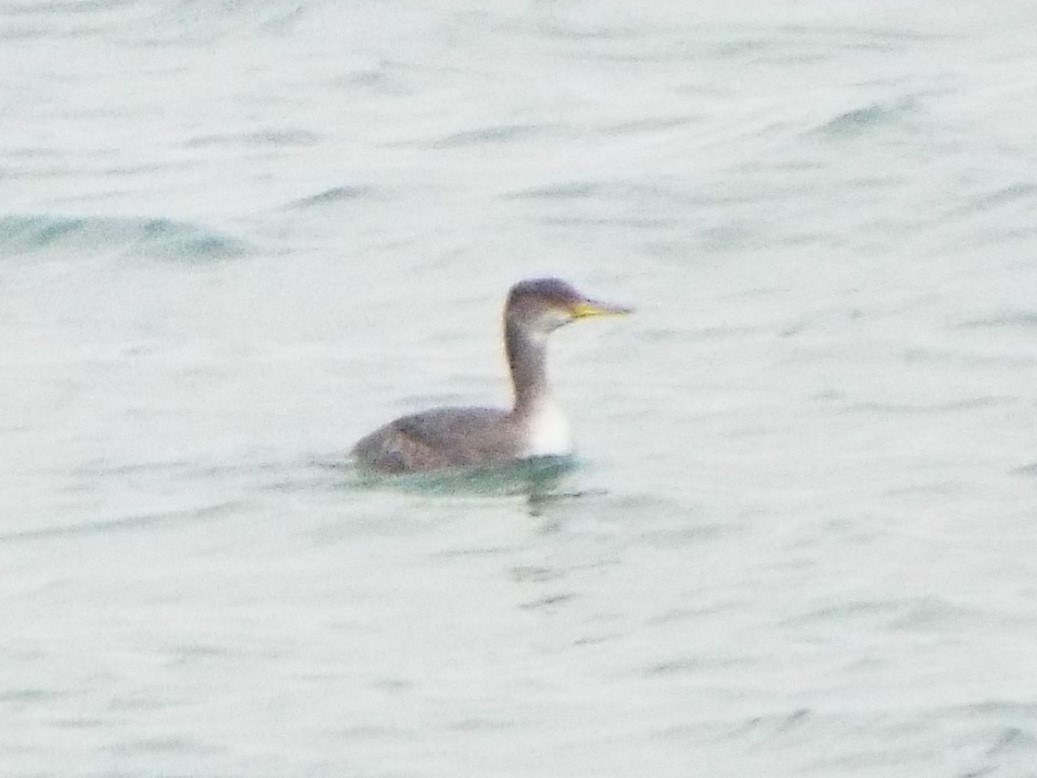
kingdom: Animalia
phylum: Chordata
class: Aves
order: Podicipediformes
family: Podicipedidae
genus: Podiceps
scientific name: Podiceps grisegena
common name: Red-necked grebe
